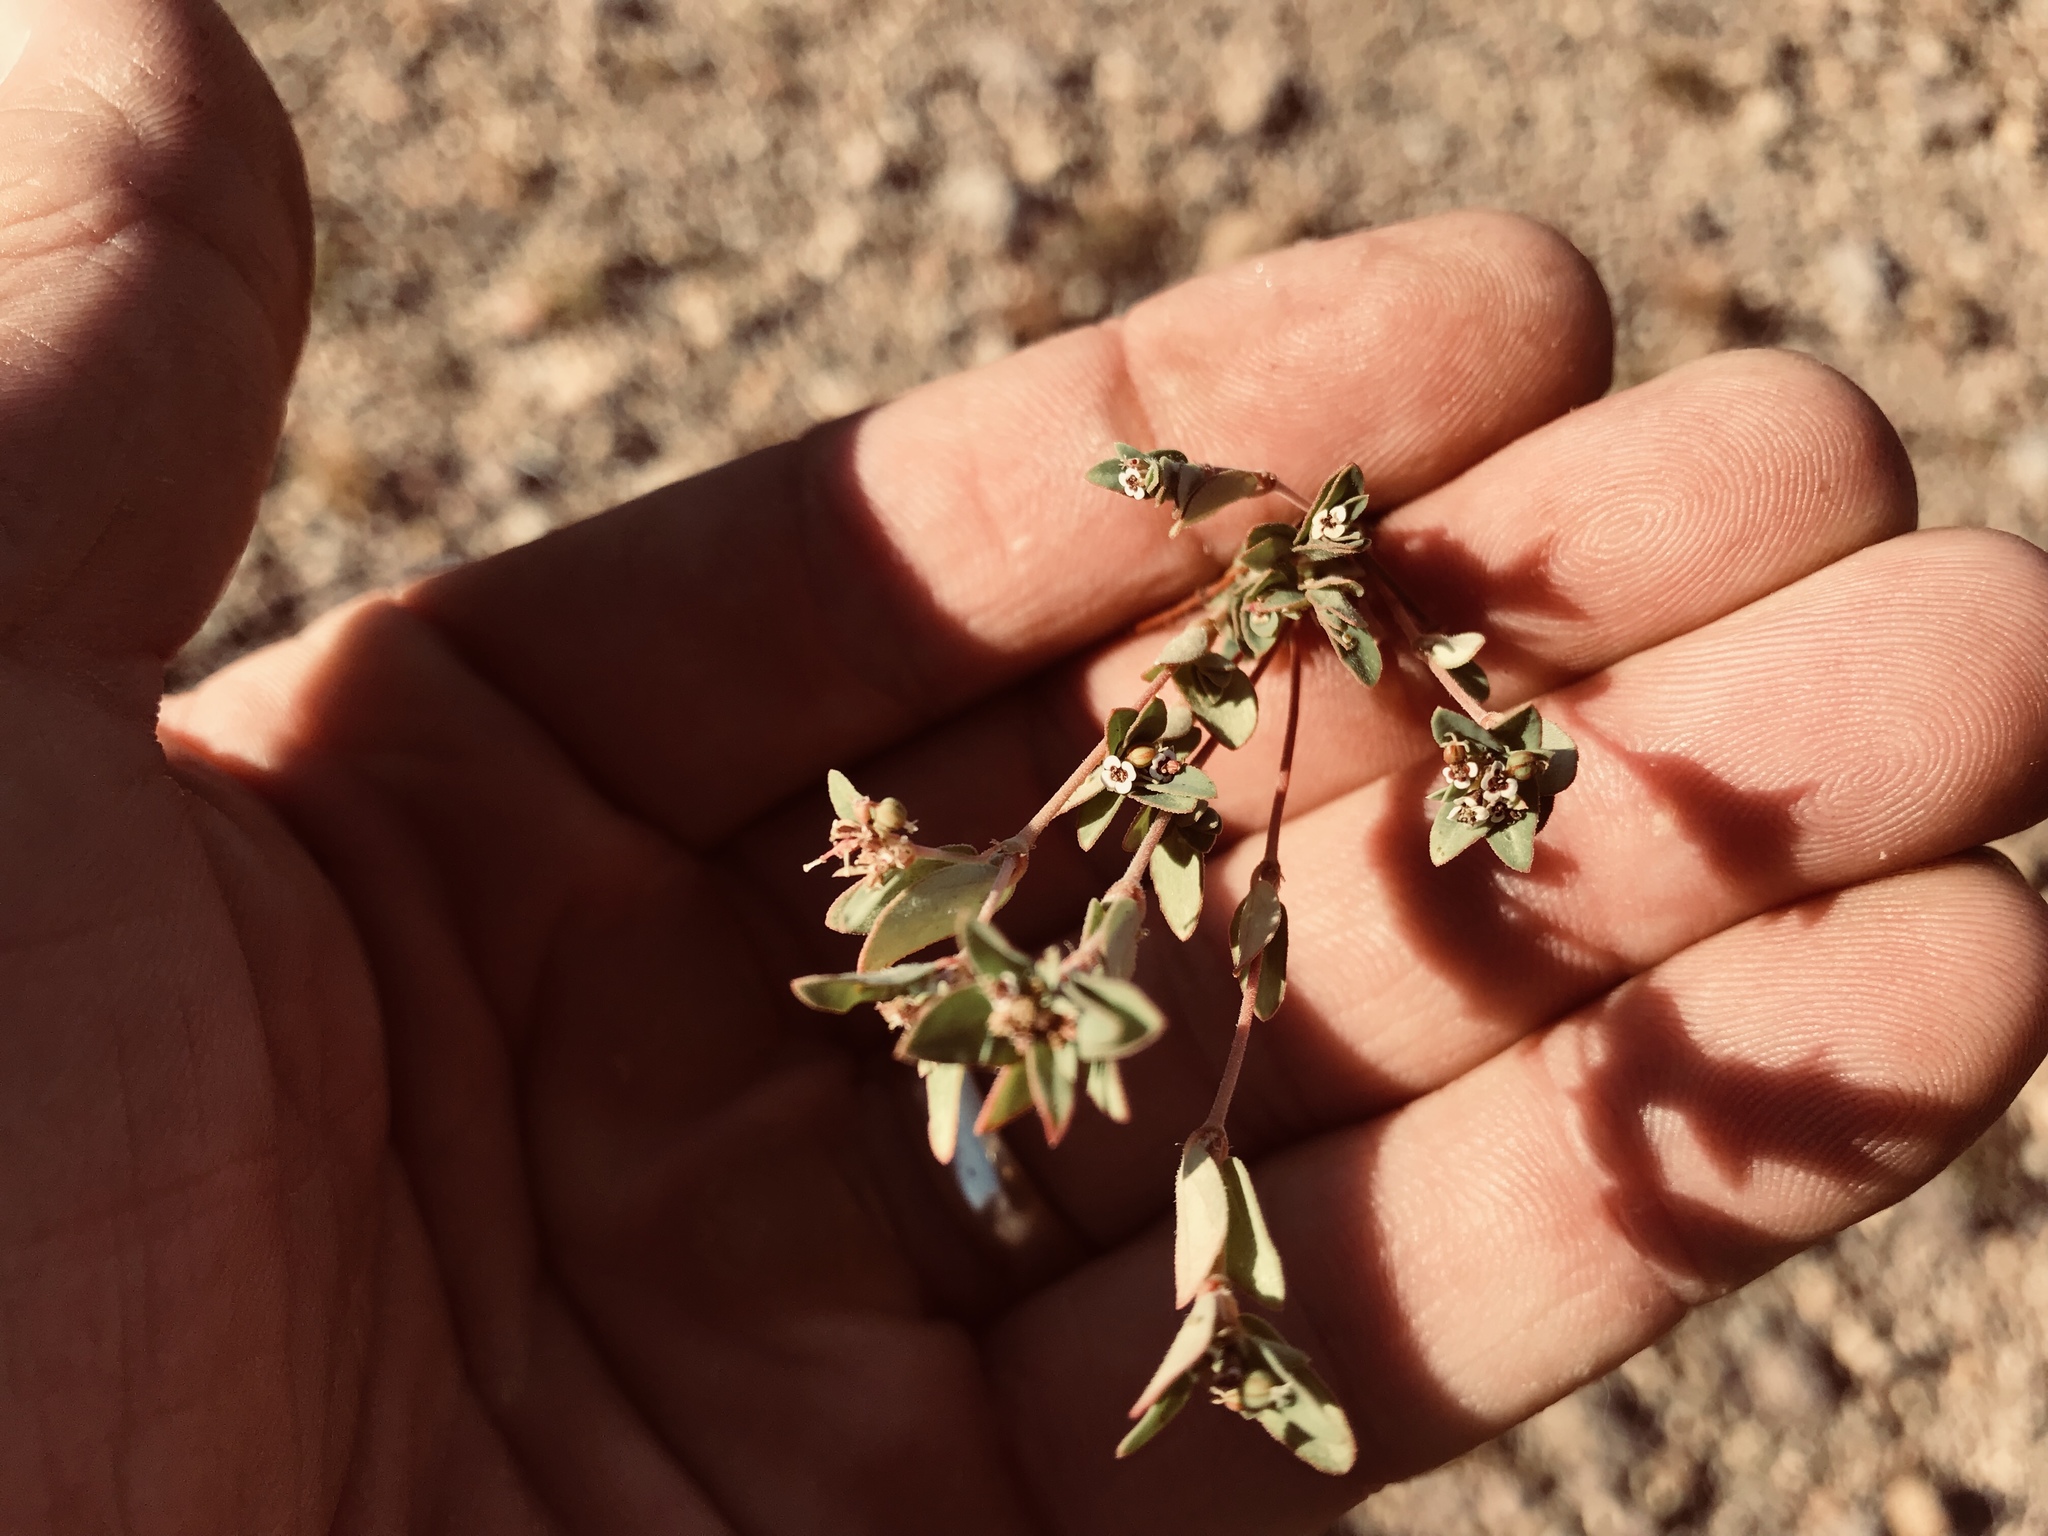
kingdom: Plantae
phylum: Tracheophyta
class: Magnoliopsida
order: Malpighiales
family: Euphorbiaceae
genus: Euphorbia
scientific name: Euphorbia capitellata
